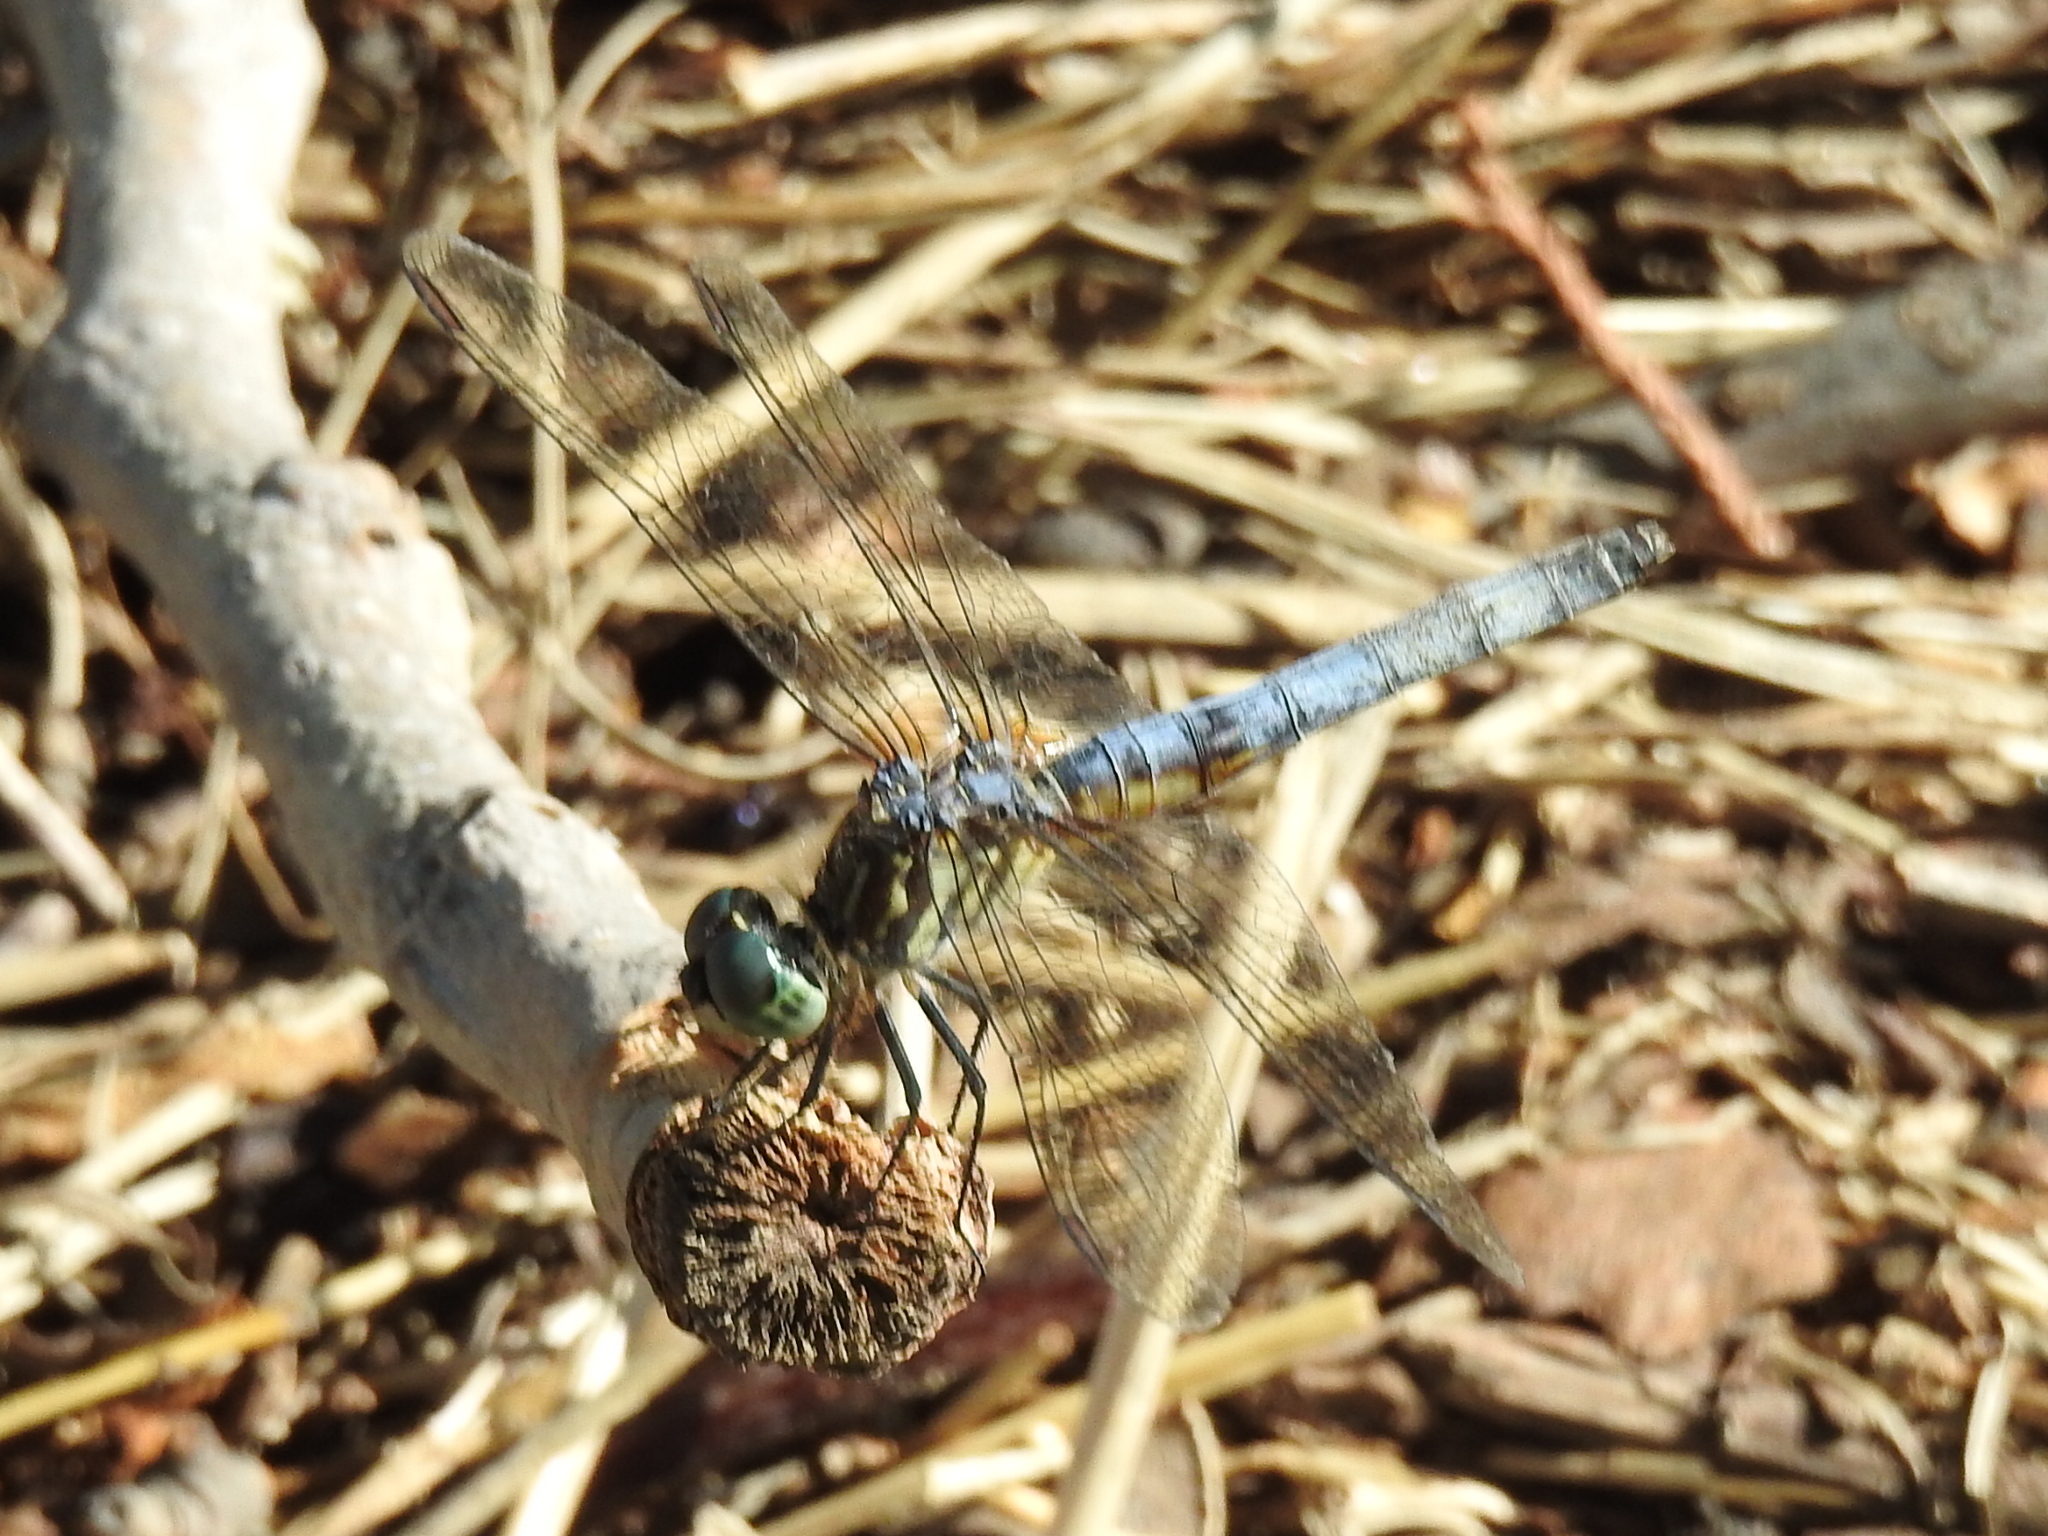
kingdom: Animalia
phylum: Arthropoda
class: Insecta
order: Odonata
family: Libellulidae
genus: Pachydiplax
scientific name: Pachydiplax longipennis
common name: Blue dasher
